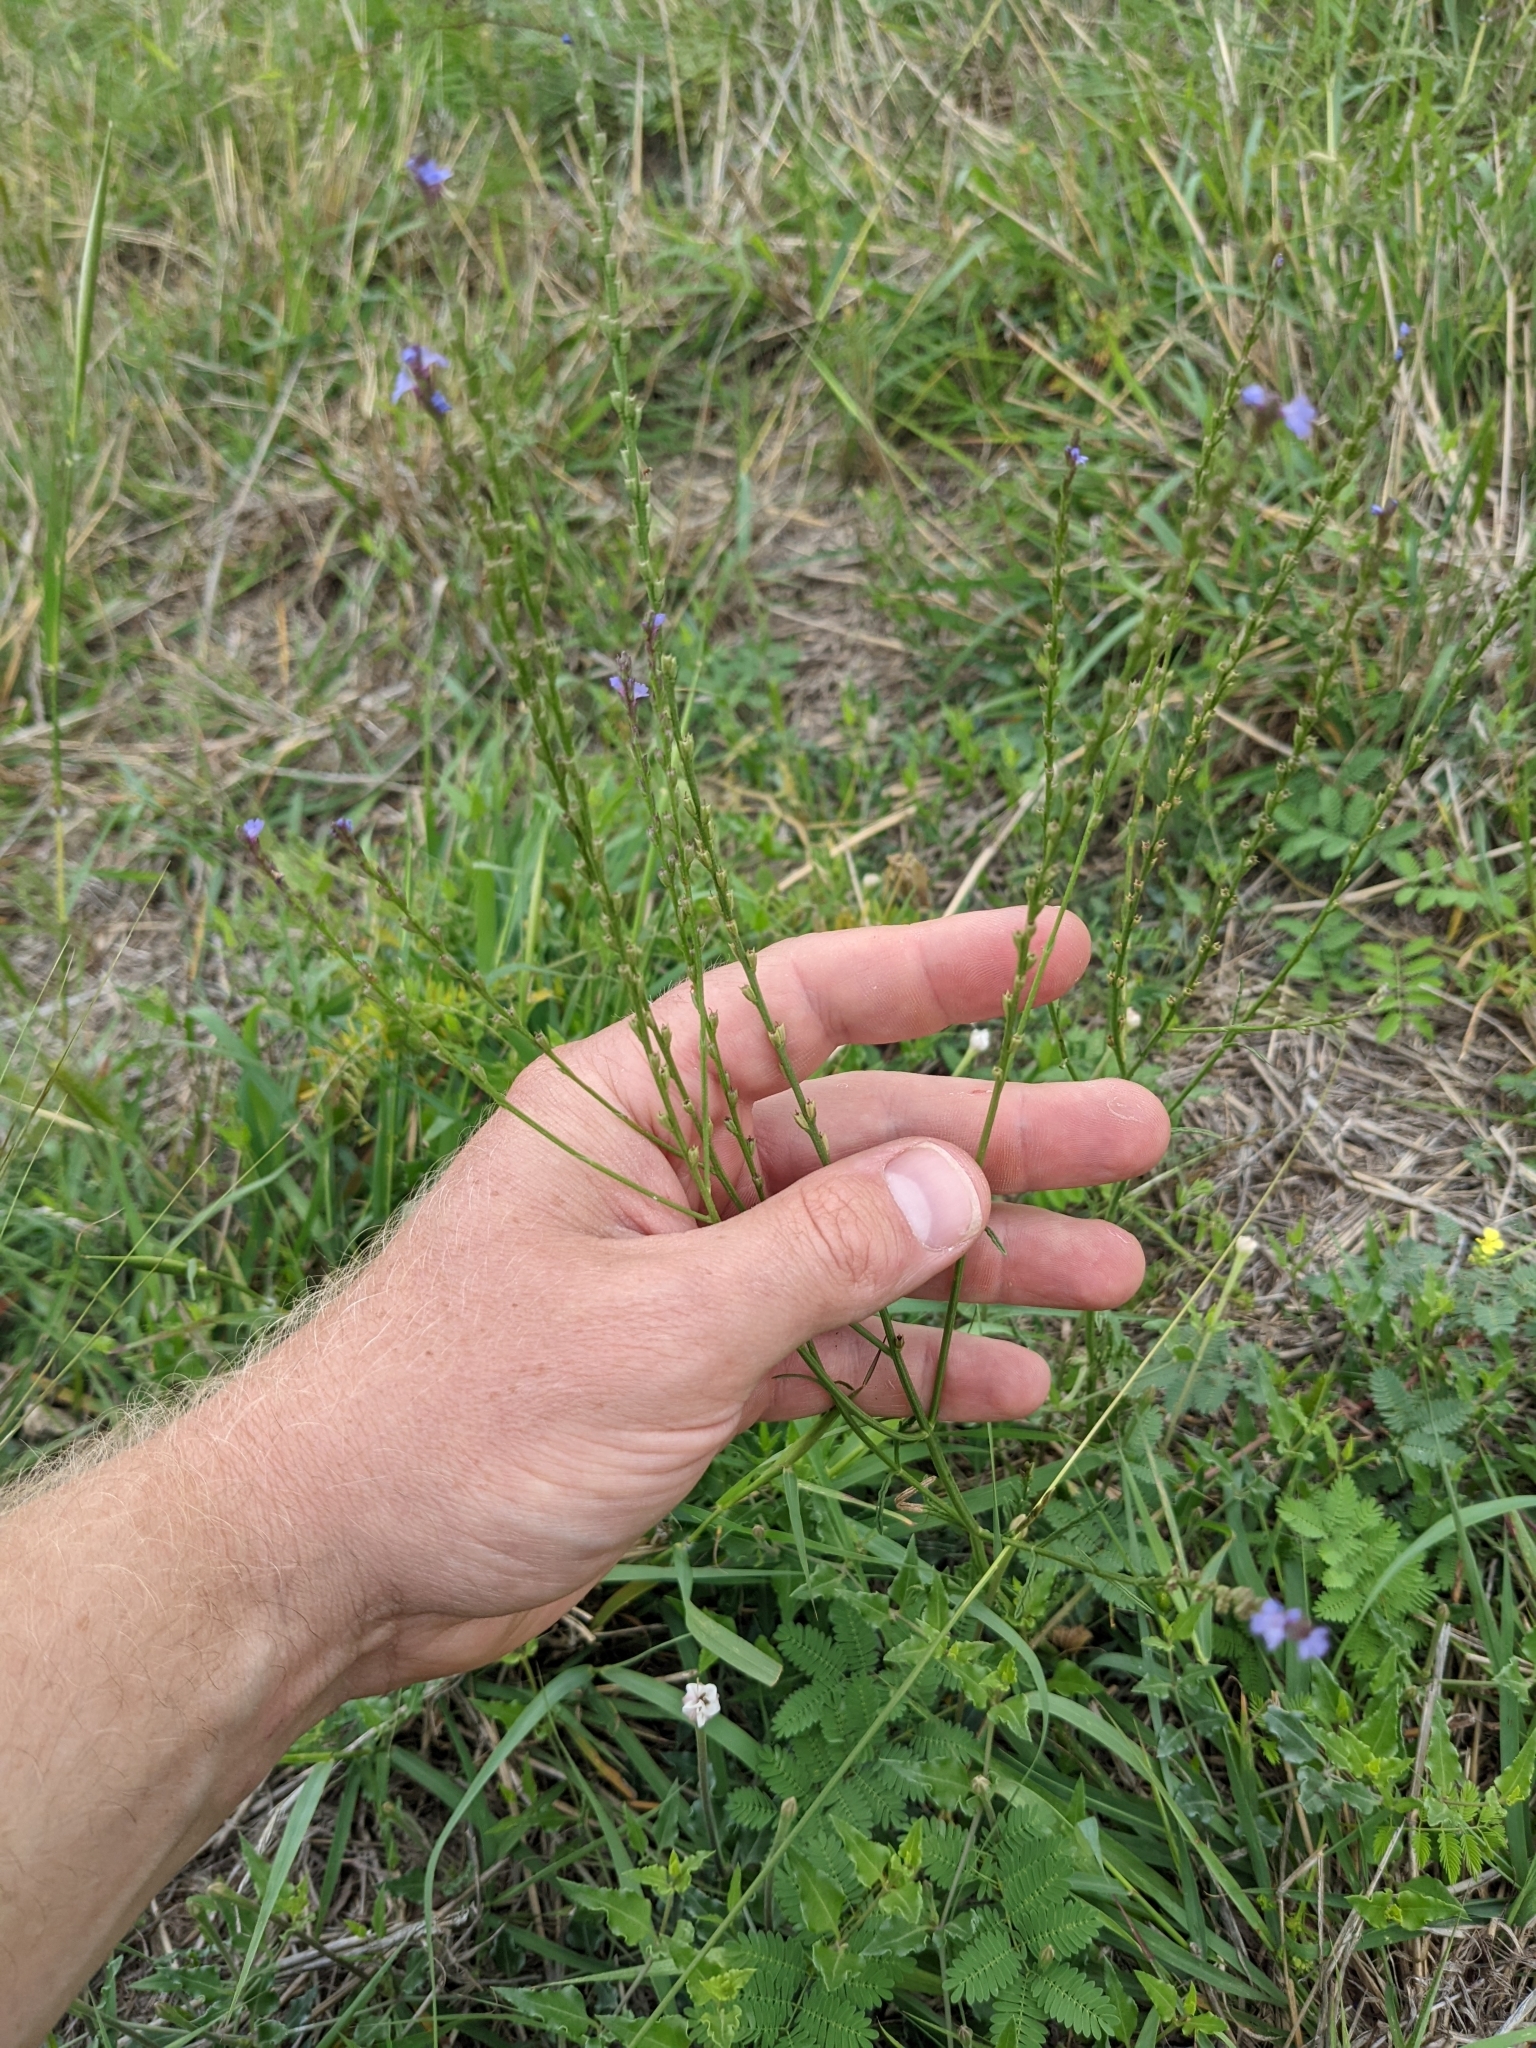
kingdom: Plantae
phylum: Tracheophyta
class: Magnoliopsida
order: Lamiales
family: Verbenaceae
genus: Verbena
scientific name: Verbena halei
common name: Texas vervain
